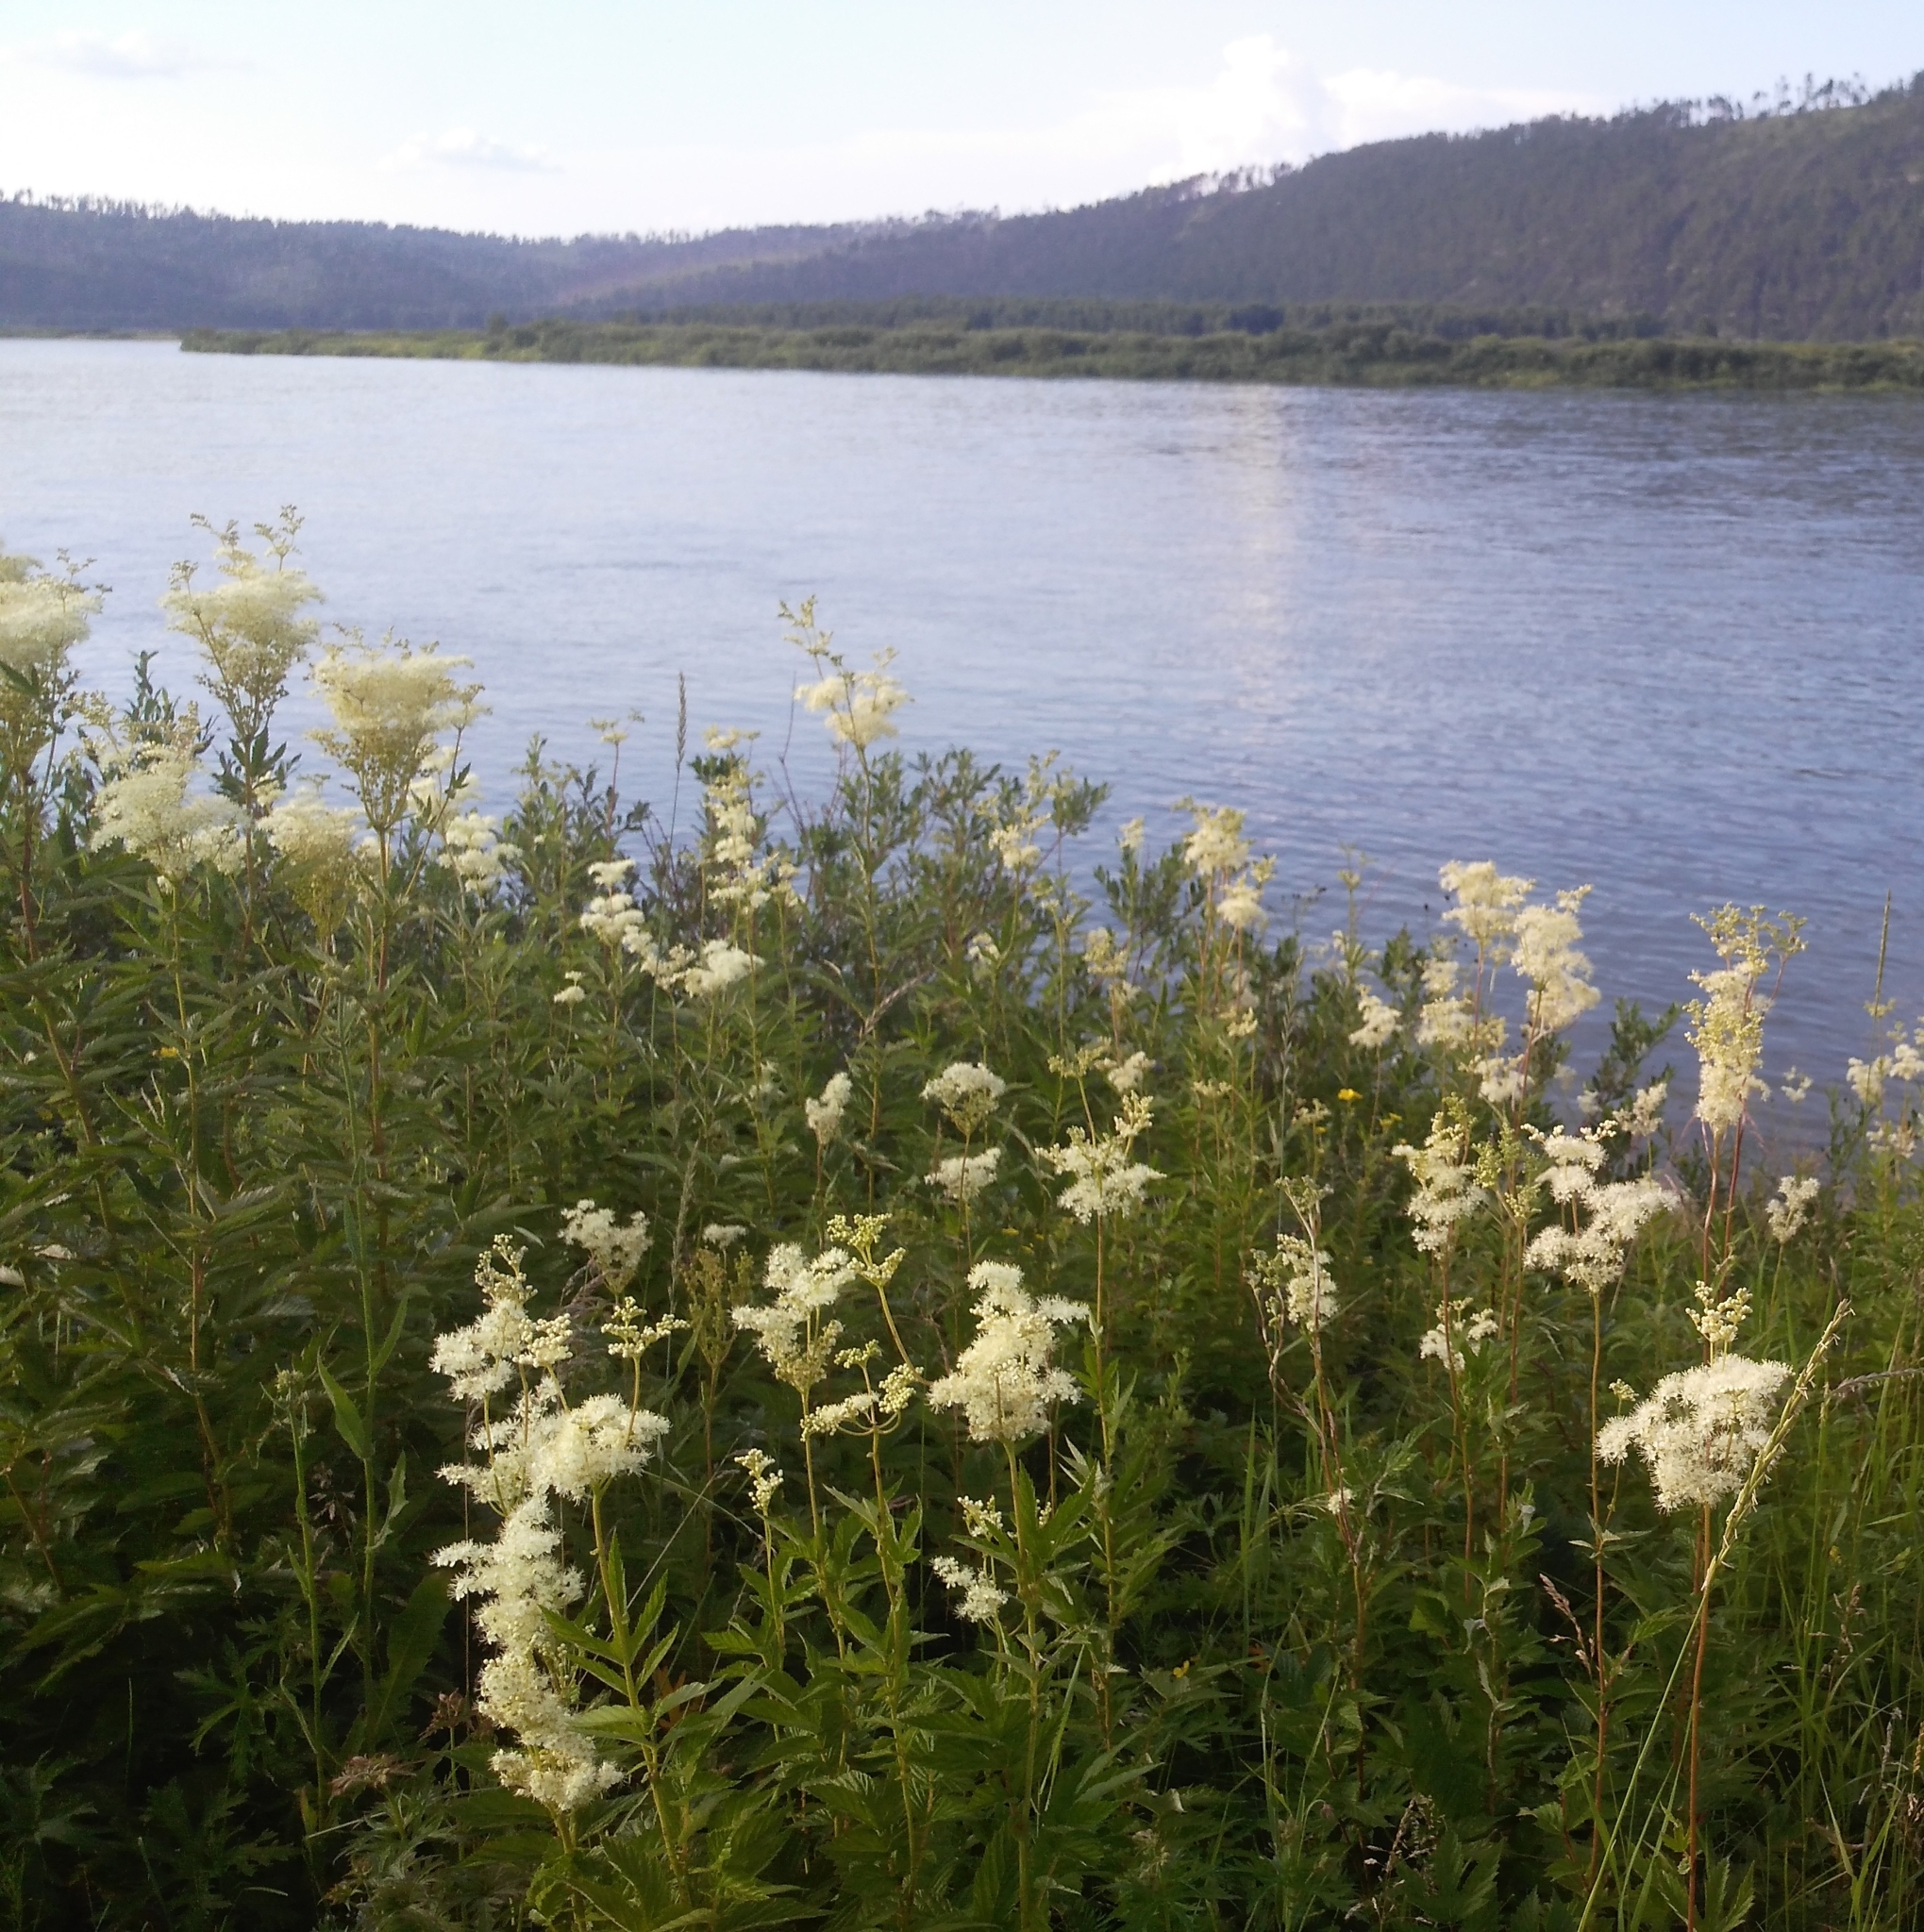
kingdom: Plantae
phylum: Tracheophyta
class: Magnoliopsida
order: Rosales
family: Rosaceae
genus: Filipendula
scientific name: Filipendula ulmaria
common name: Meadowsweet
